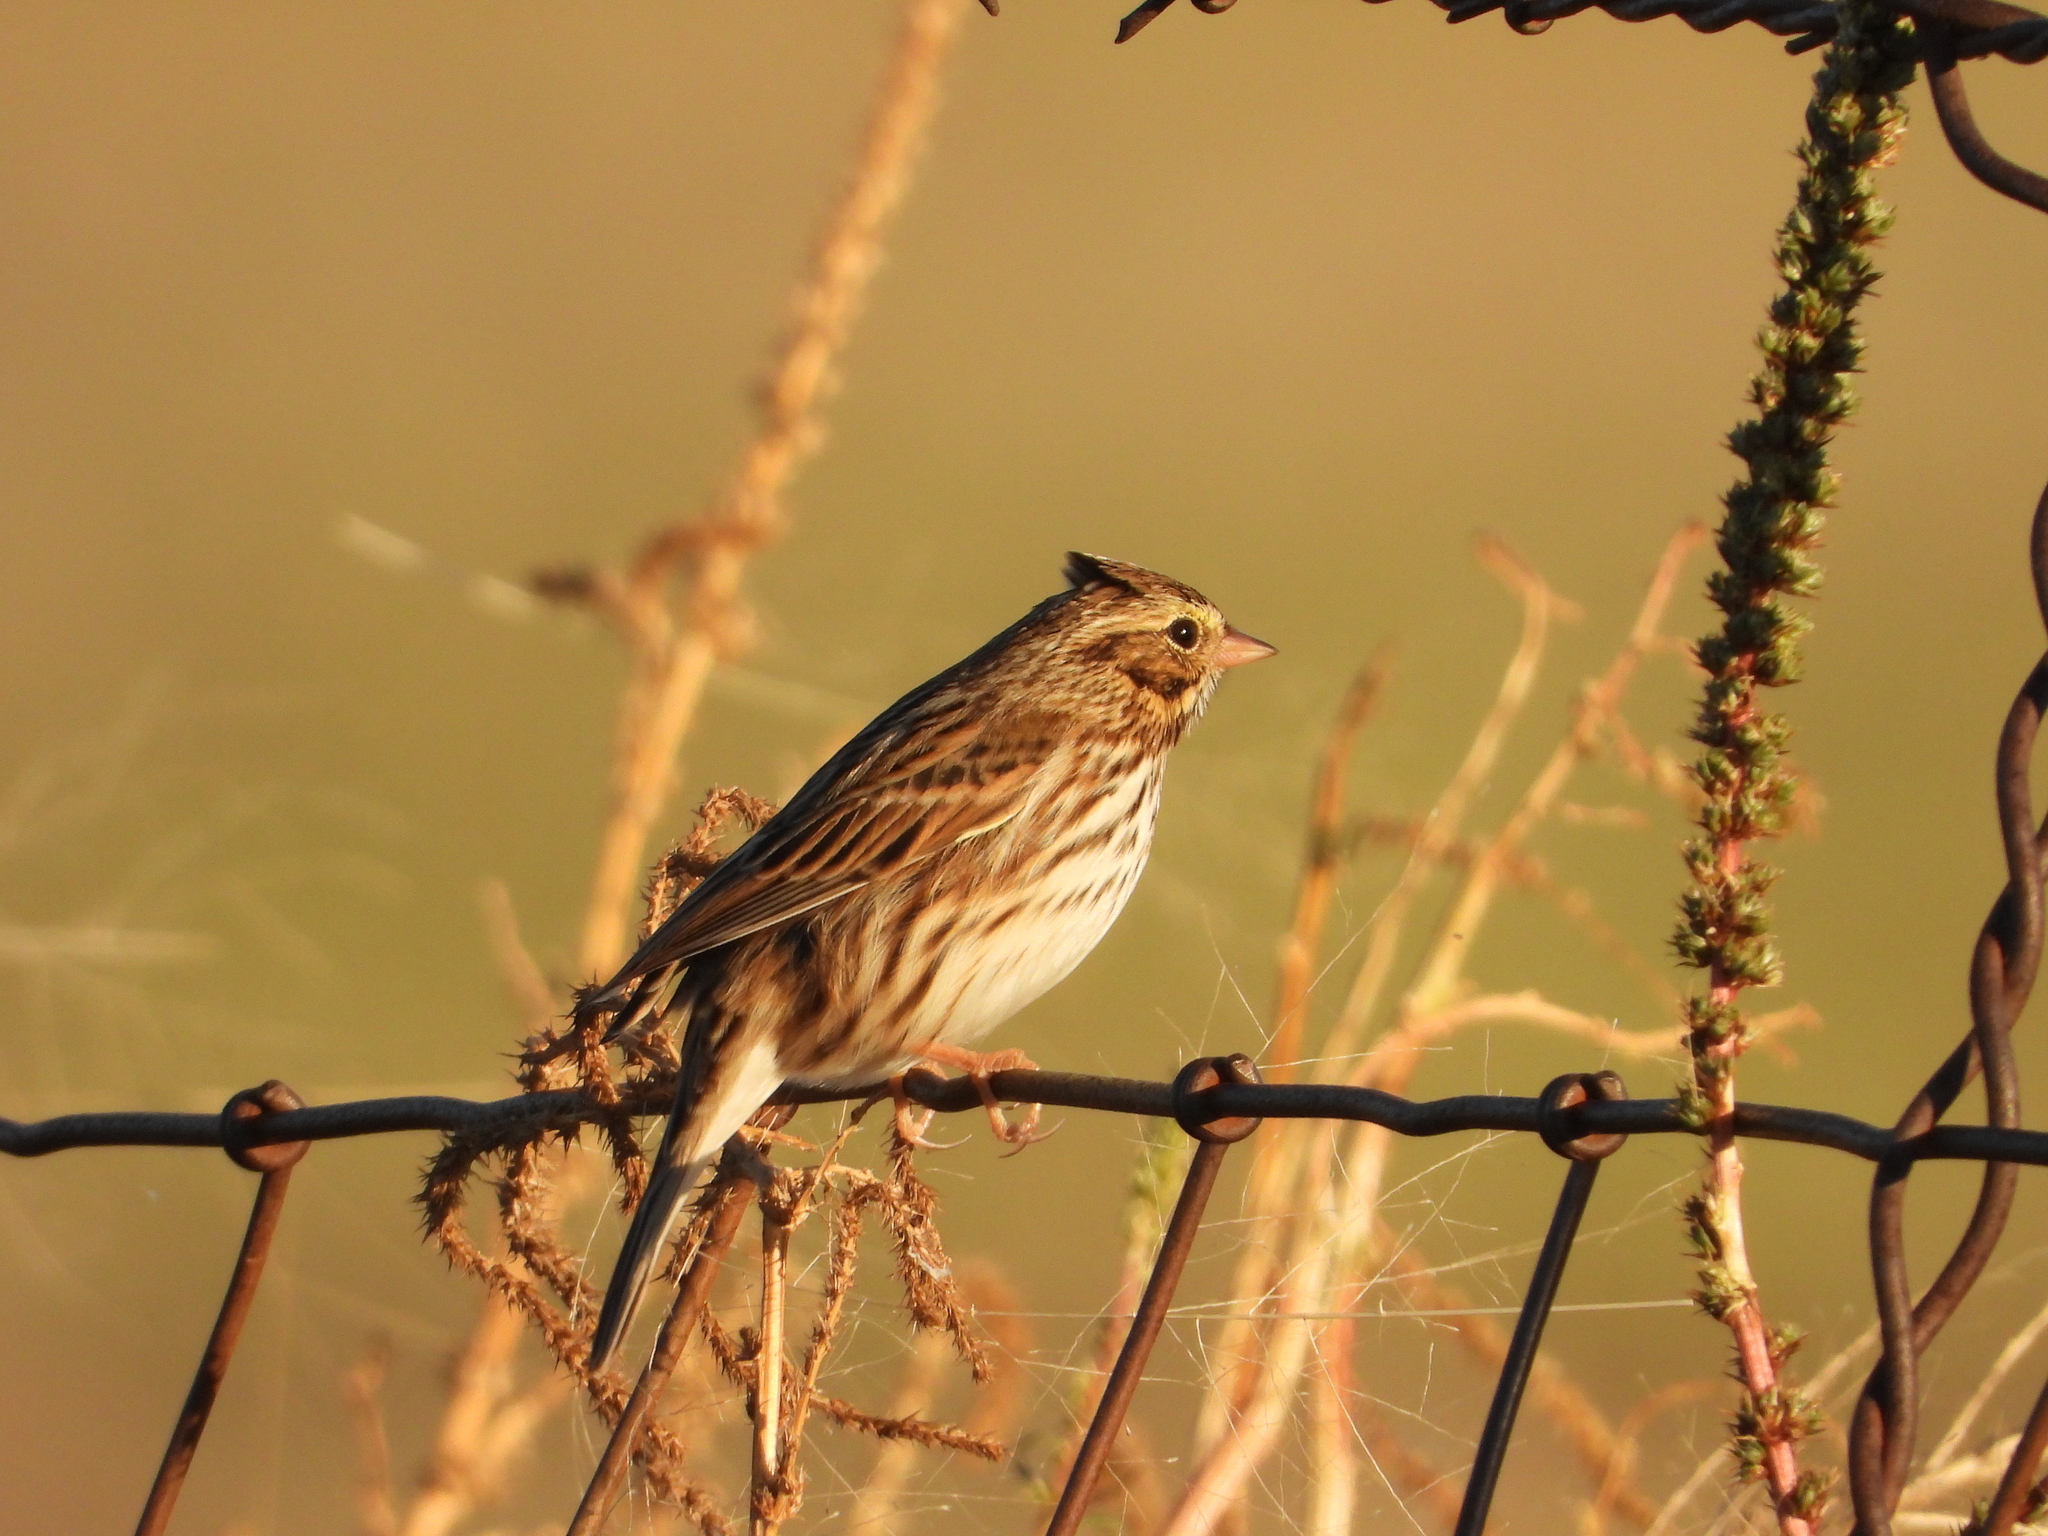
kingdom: Animalia
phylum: Chordata
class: Aves
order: Passeriformes
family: Passerellidae
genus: Passerculus
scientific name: Passerculus sandwichensis
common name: Savannah sparrow
